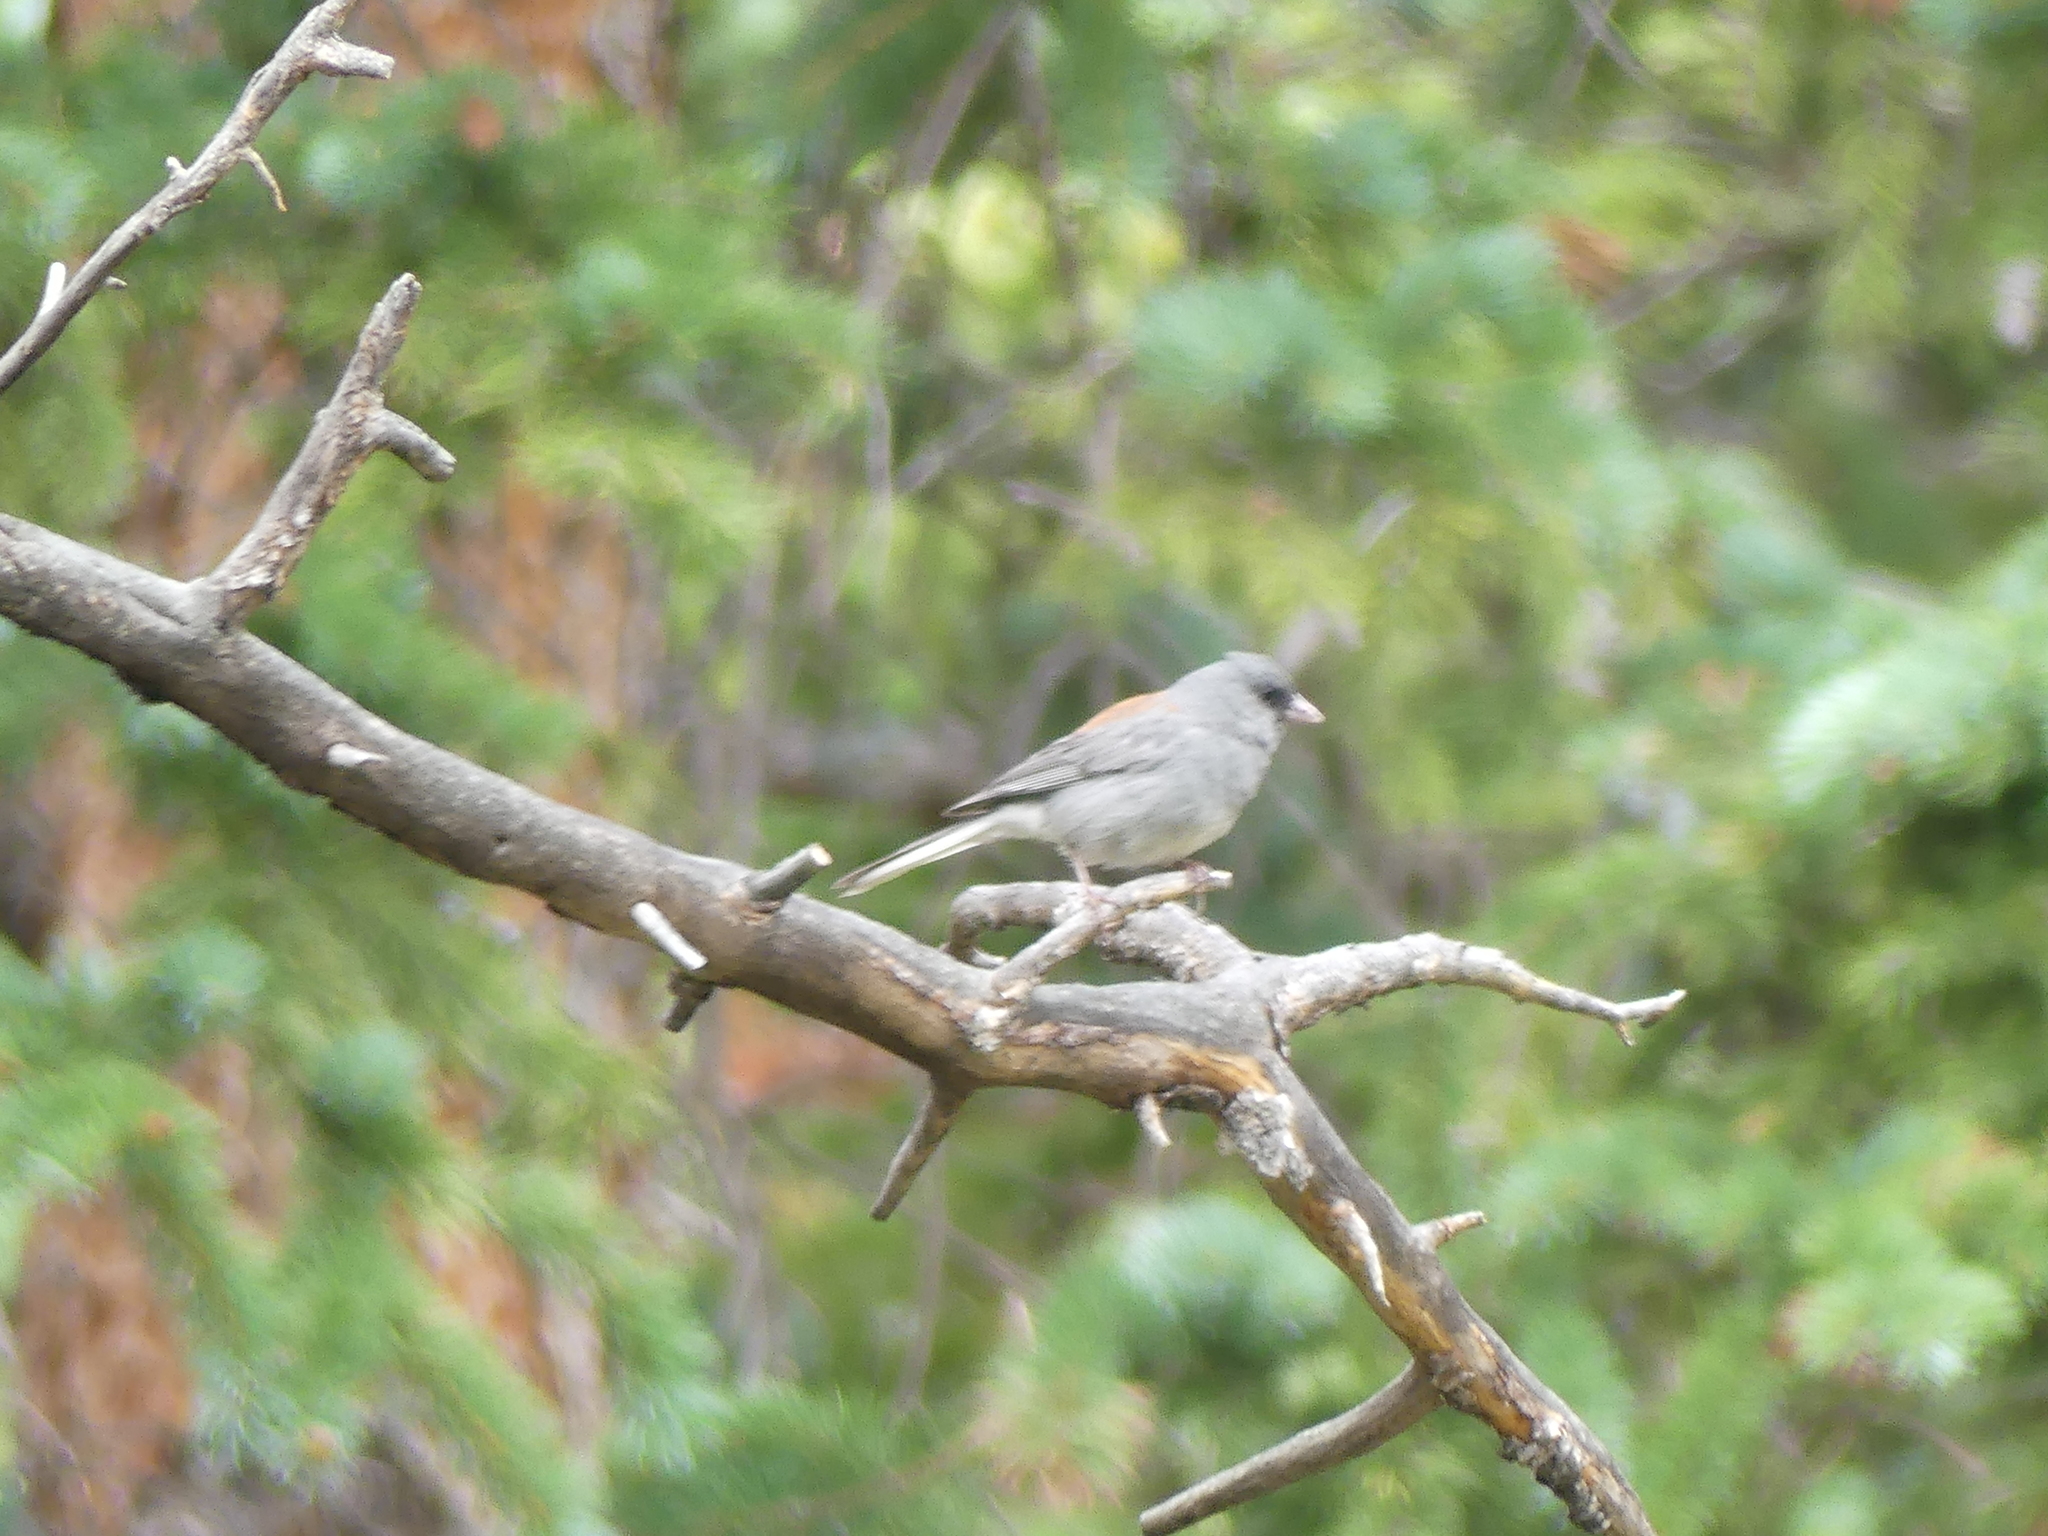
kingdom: Animalia
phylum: Chordata
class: Aves
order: Passeriformes
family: Passerellidae
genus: Junco
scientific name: Junco hyemalis
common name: Dark-eyed junco
